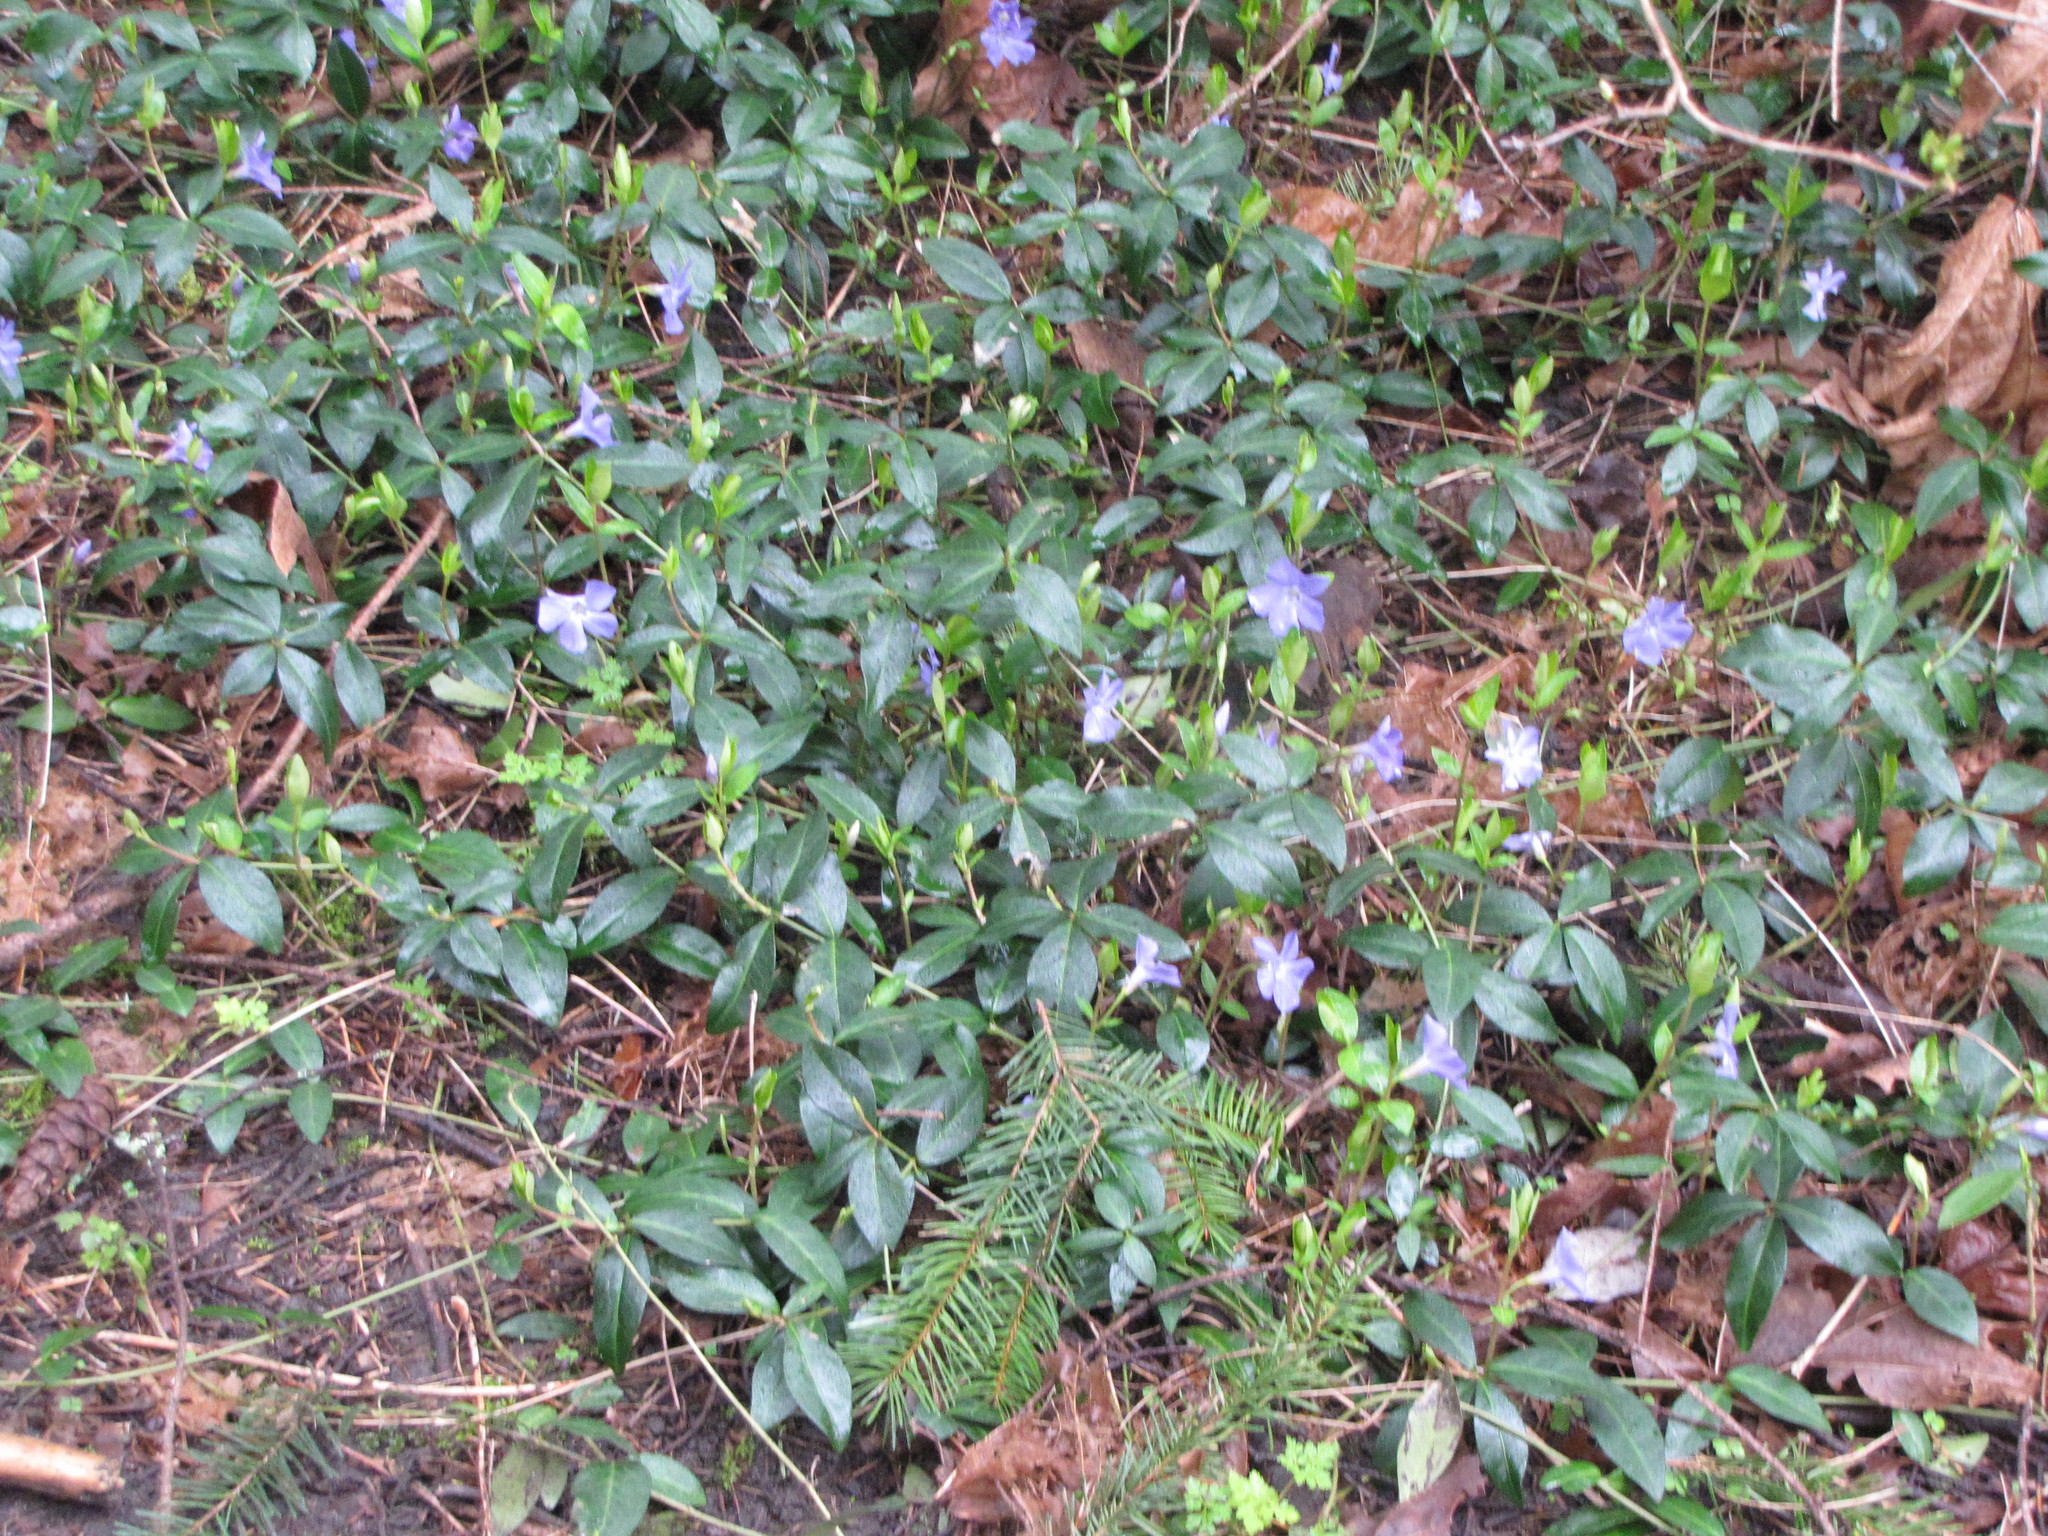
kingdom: Plantae
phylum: Tracheophyta
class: Magnoliopsida
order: Gentianales
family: Apocynaceae
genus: Vinca
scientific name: Vinca minor
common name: Lesser periwinkle
